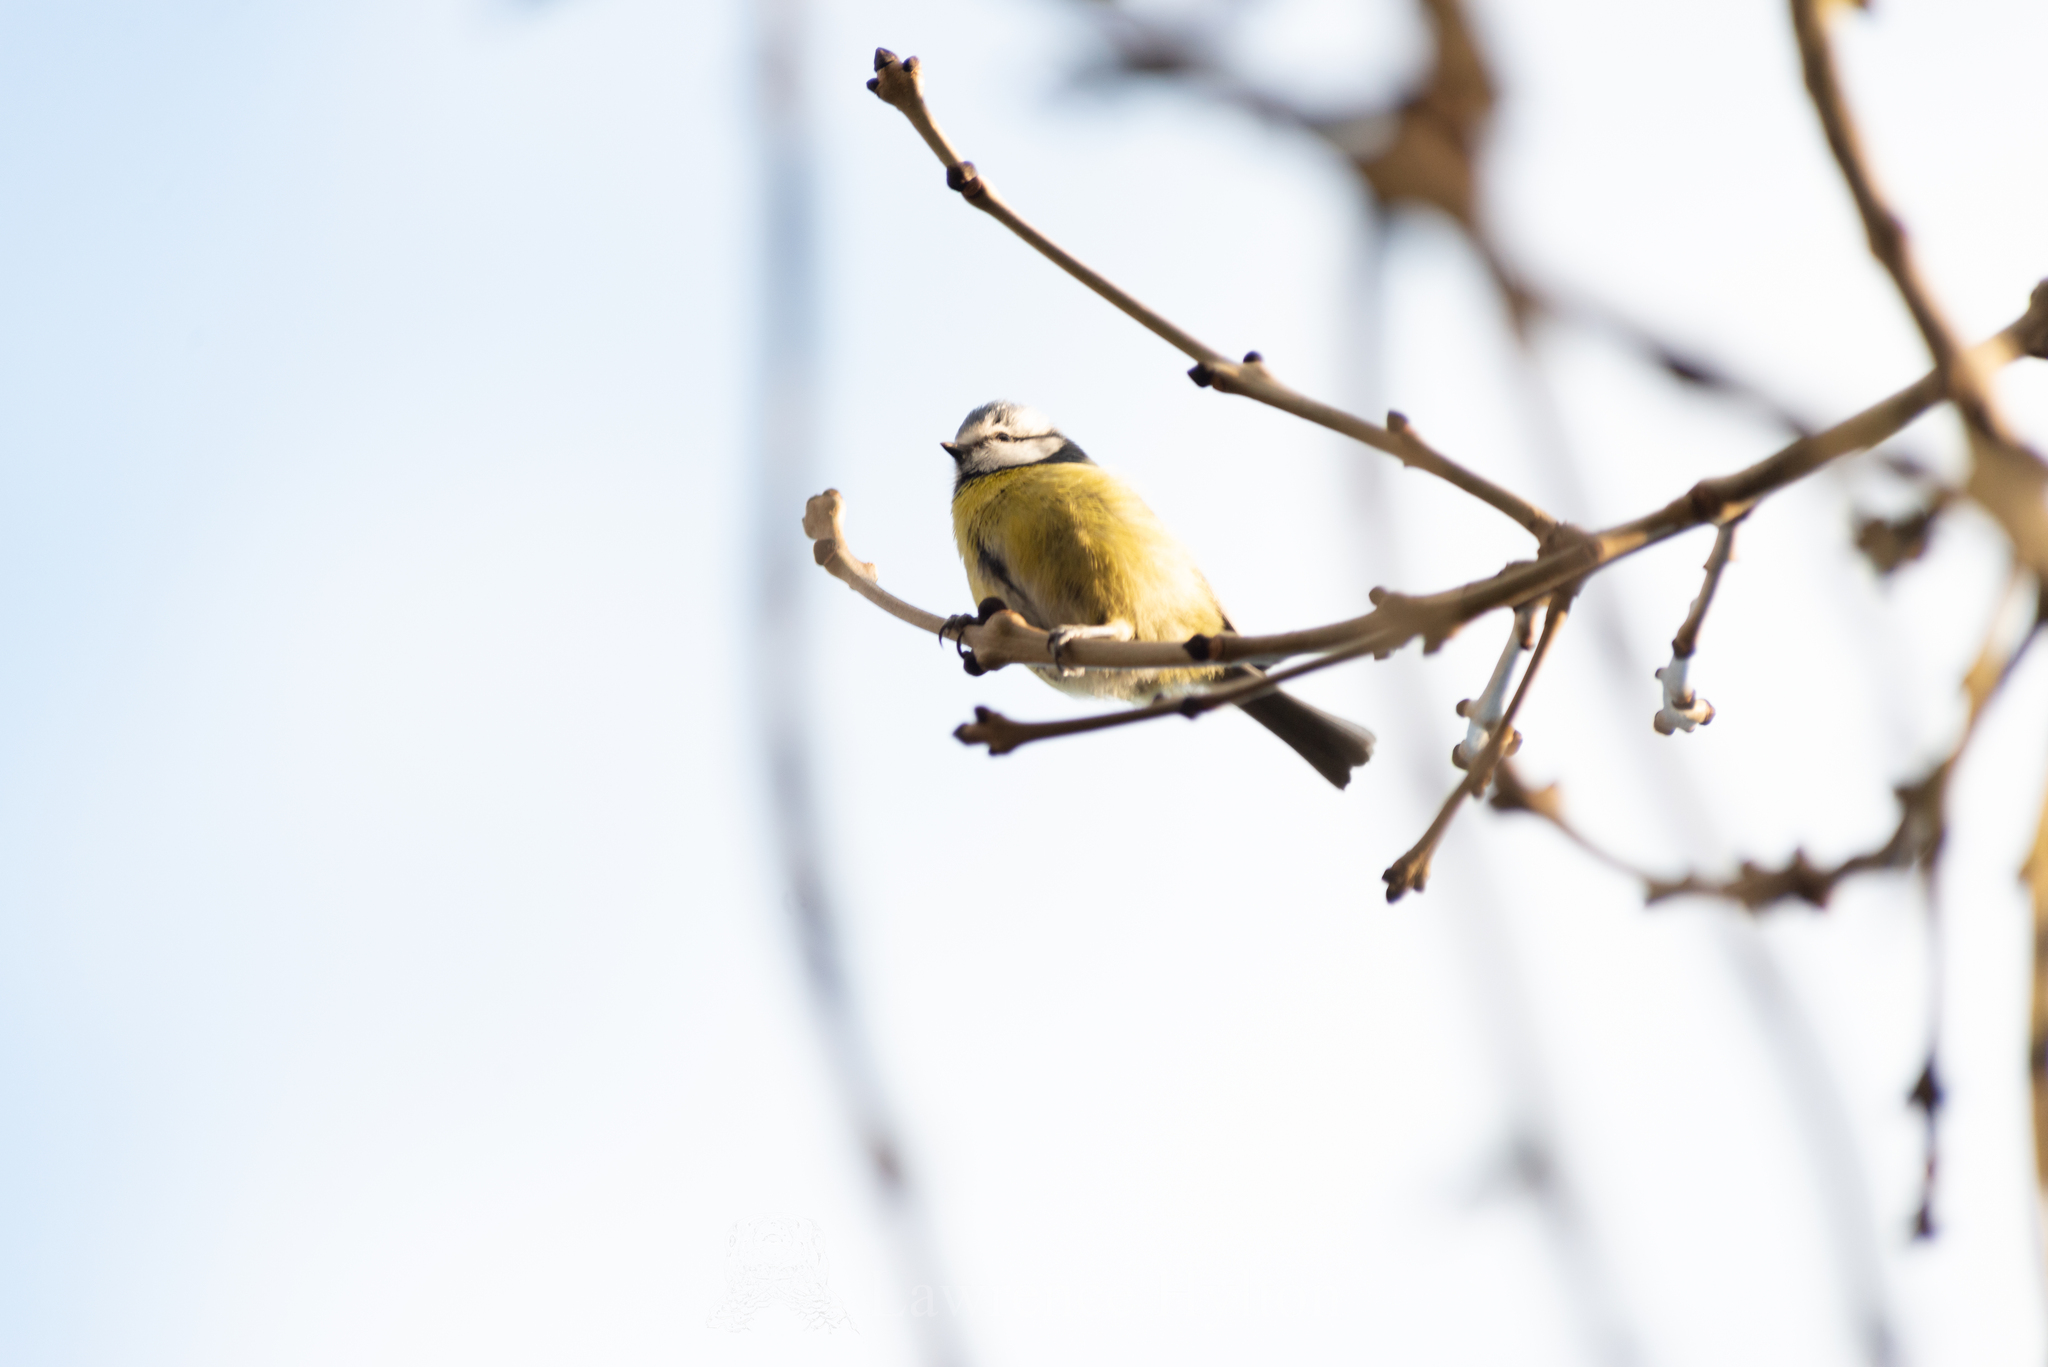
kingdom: Animalia
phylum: Chordata
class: Aves
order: Passeriformes
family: Paridae
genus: Cyanistes
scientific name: Cyanistes caeruleus
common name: Eurasian blue tit
